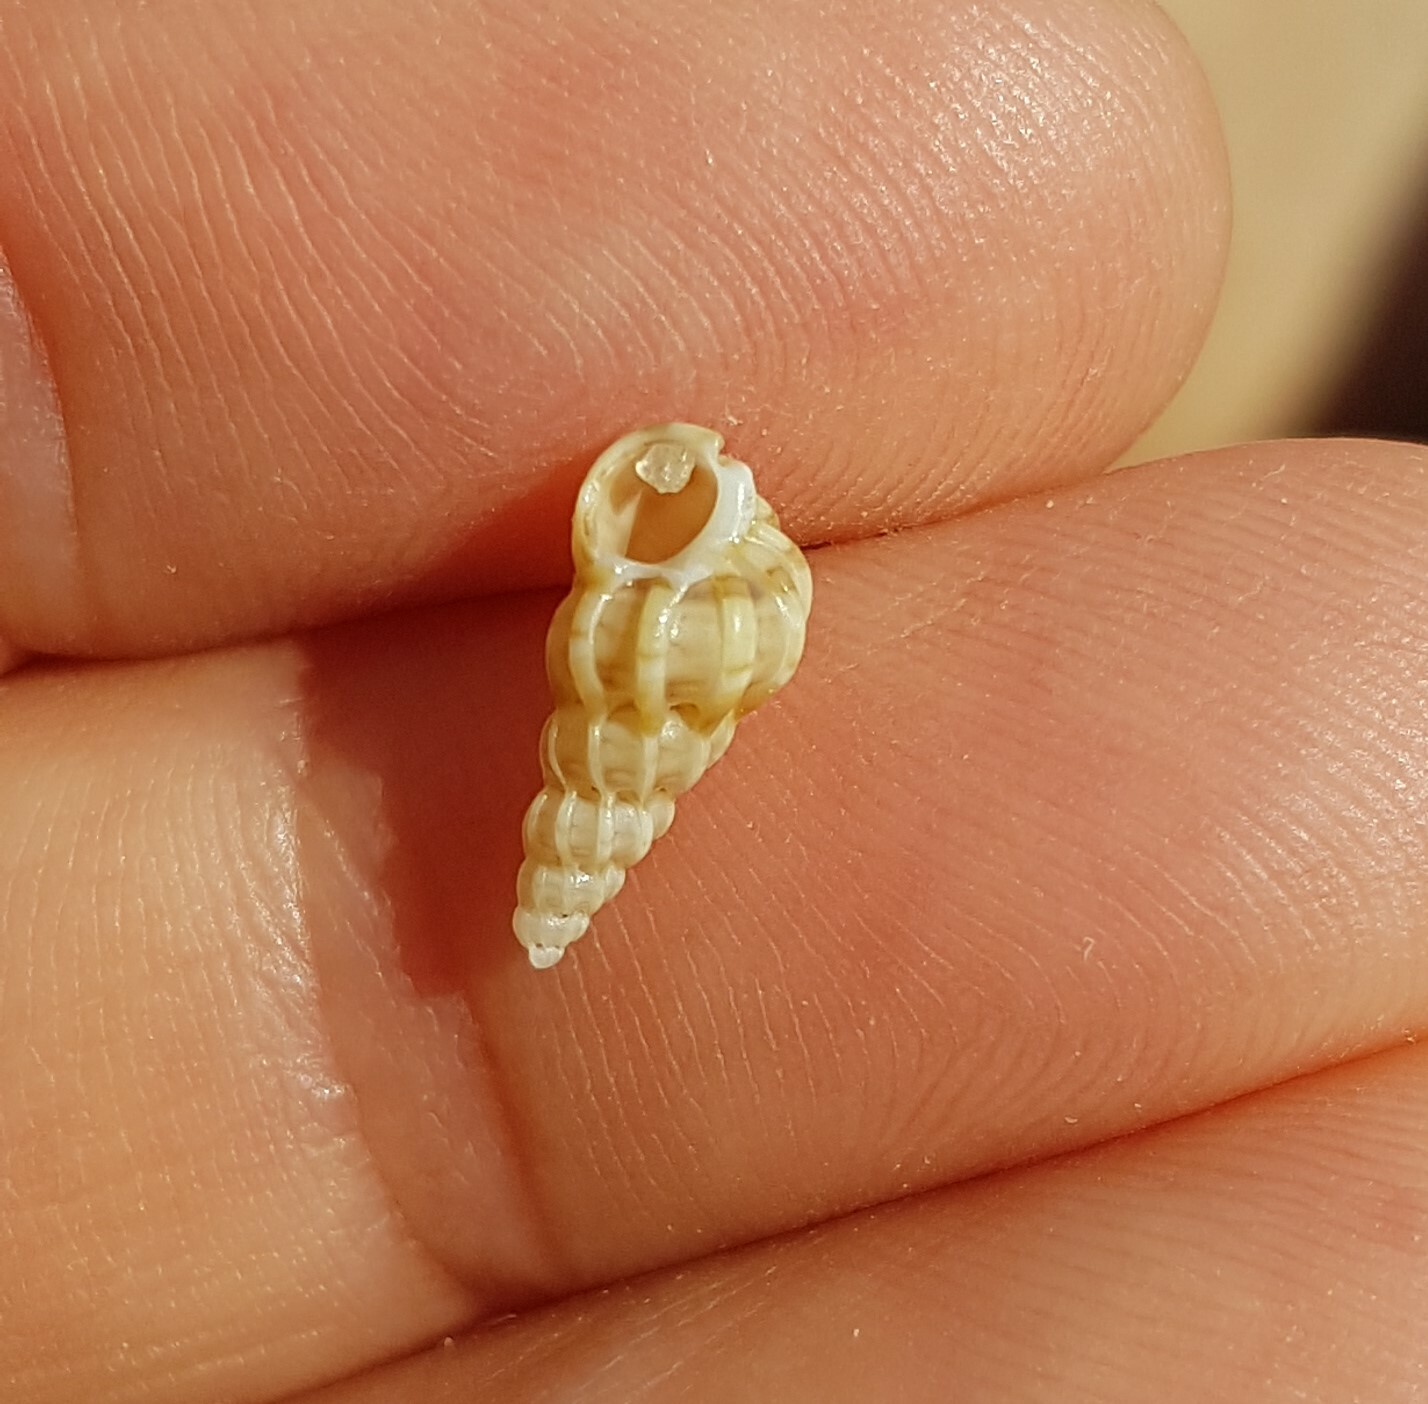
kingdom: Animalia
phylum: Mollusca
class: Gastropoda
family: Epitoniidae
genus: Epitonium
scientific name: Epitonium clathrus
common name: Common wentletrap
